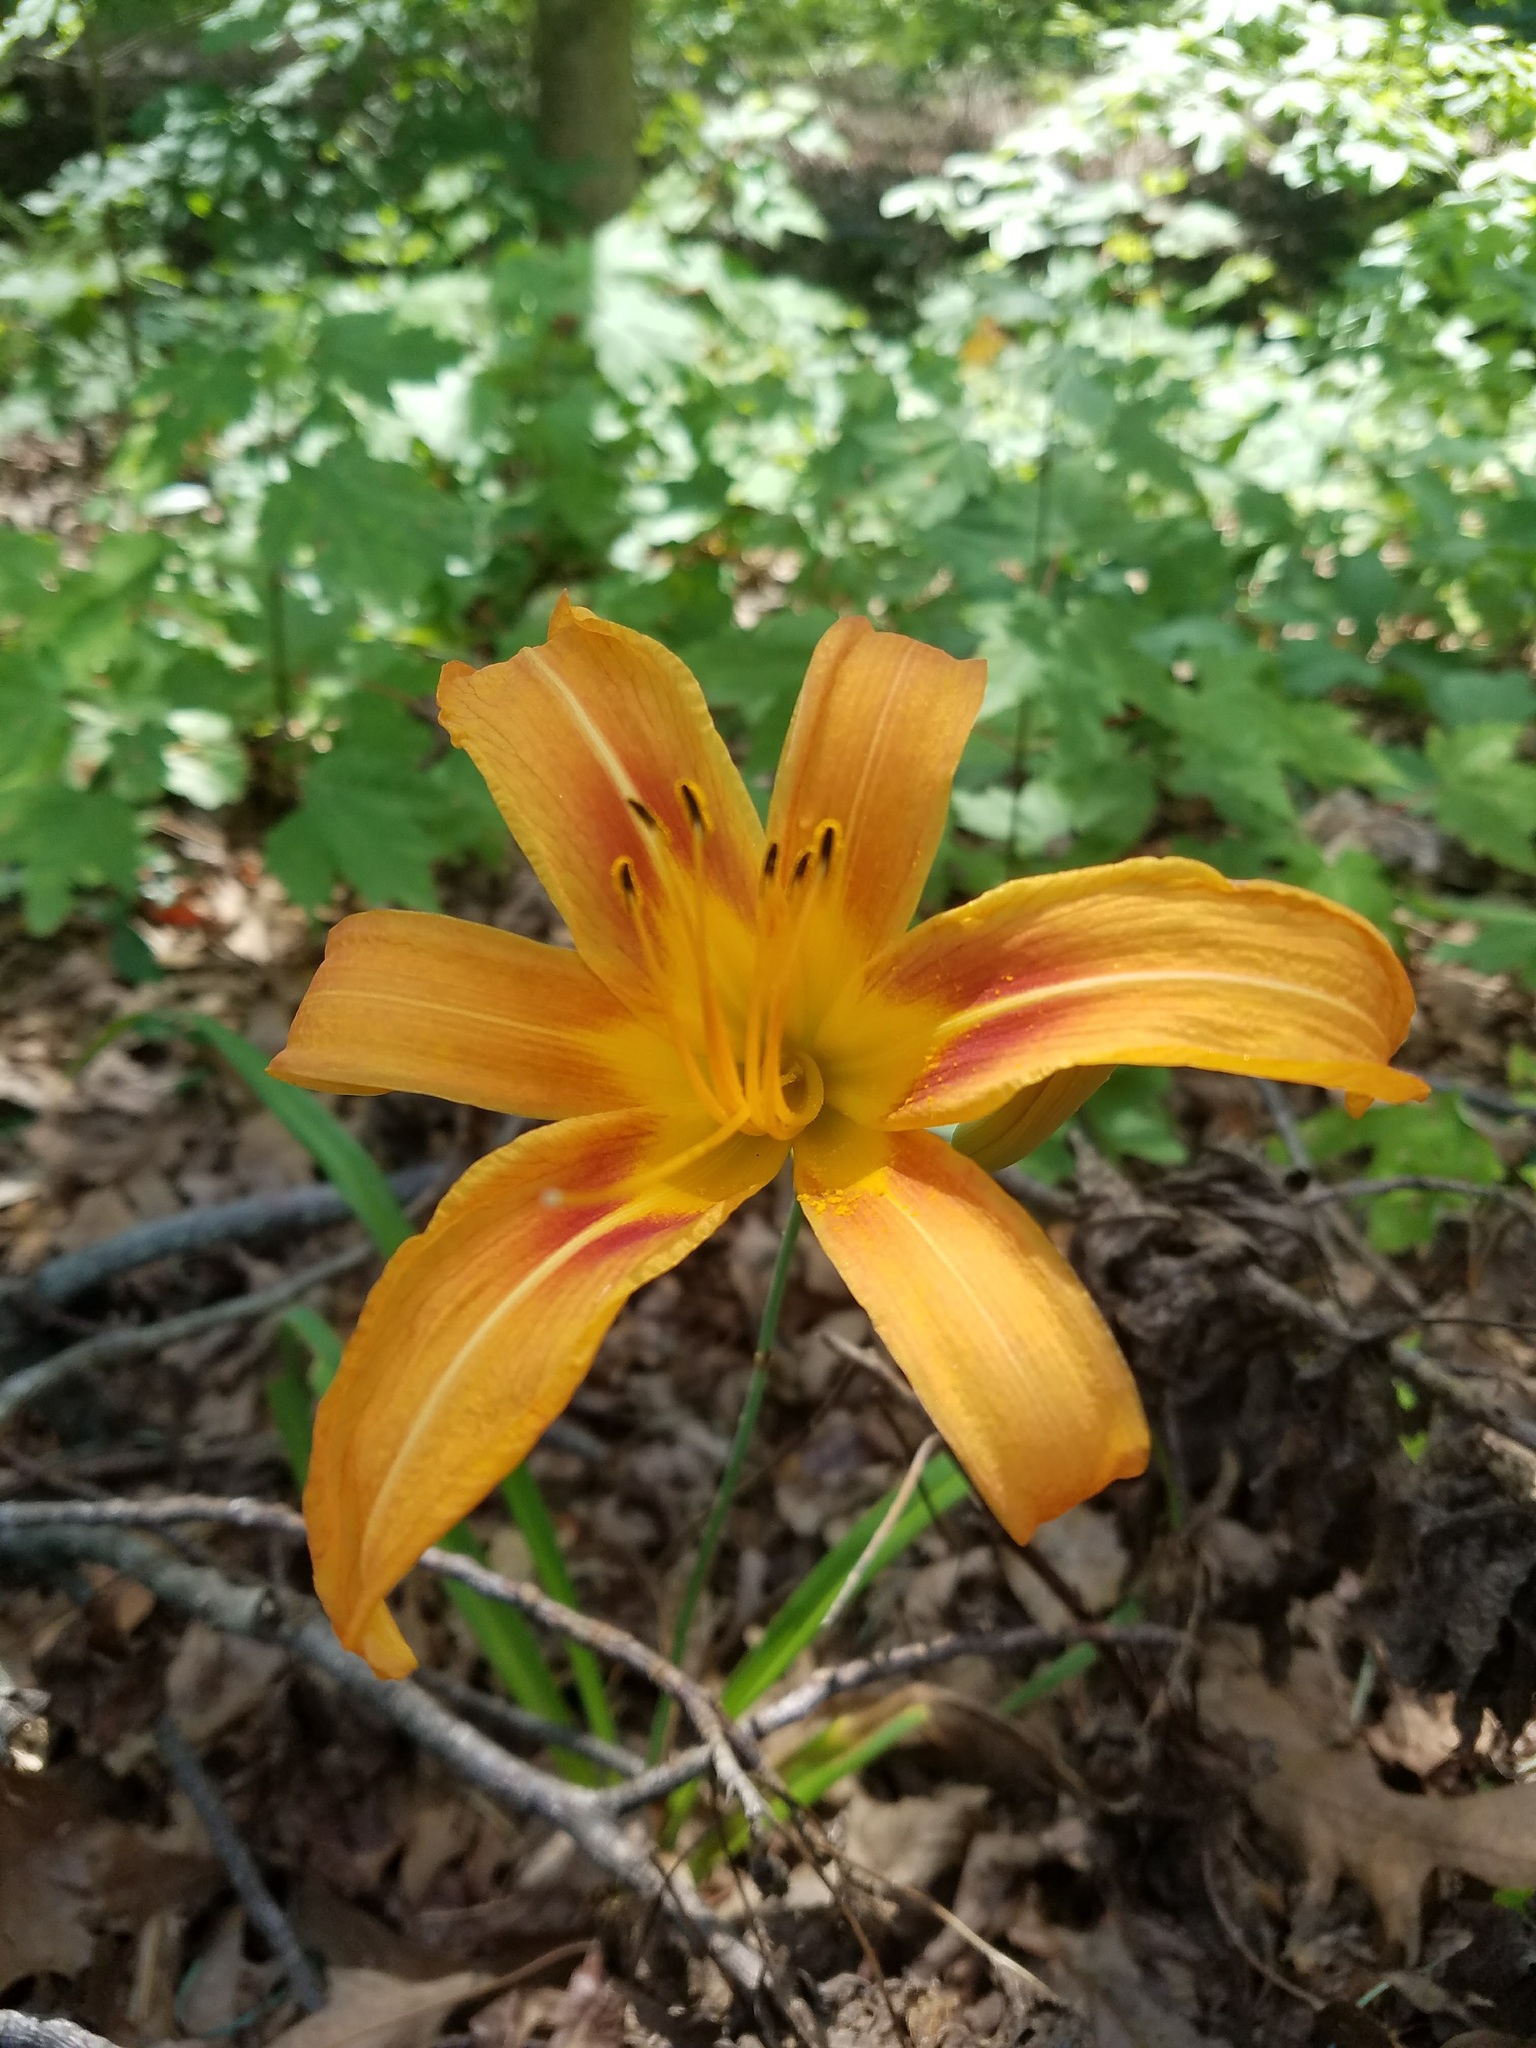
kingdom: Plantae
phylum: Tracheophyta
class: Liliopsida
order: Asparagales
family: Asphodelaceae
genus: Hemerocallis
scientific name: Hemerocallis fulva
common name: Orange day-lily
